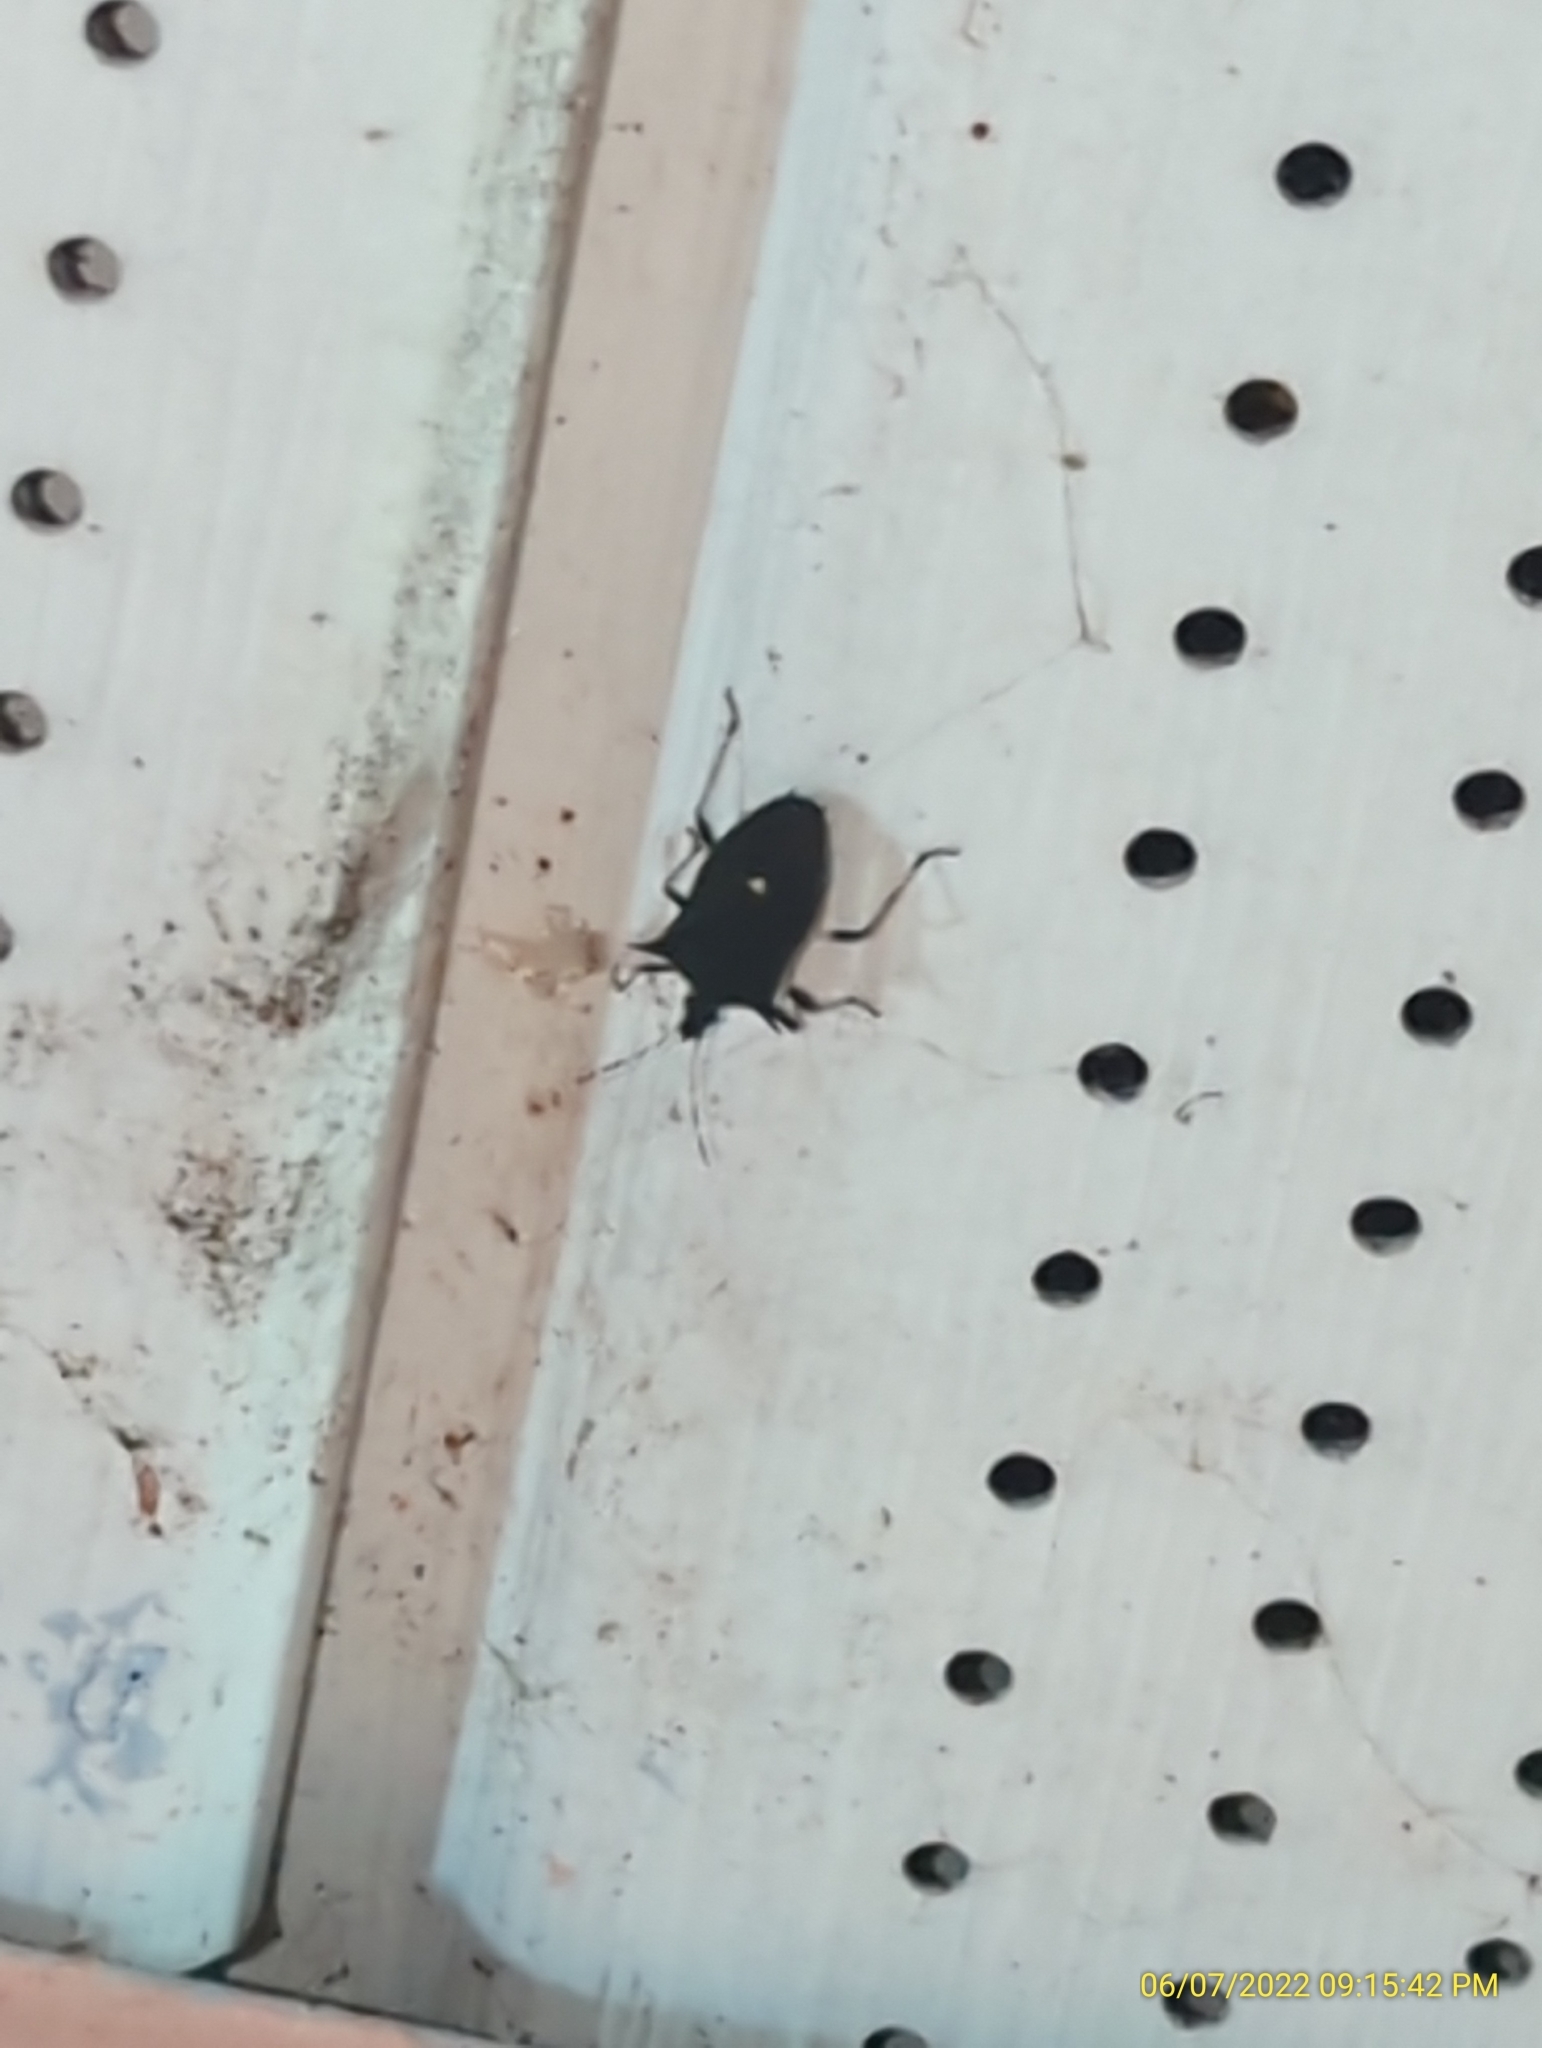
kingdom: Animalia
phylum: Arthropoda
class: Insecta
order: Hemiptera
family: Pentatomidae
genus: Proxys
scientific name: Proxys punctulatus
